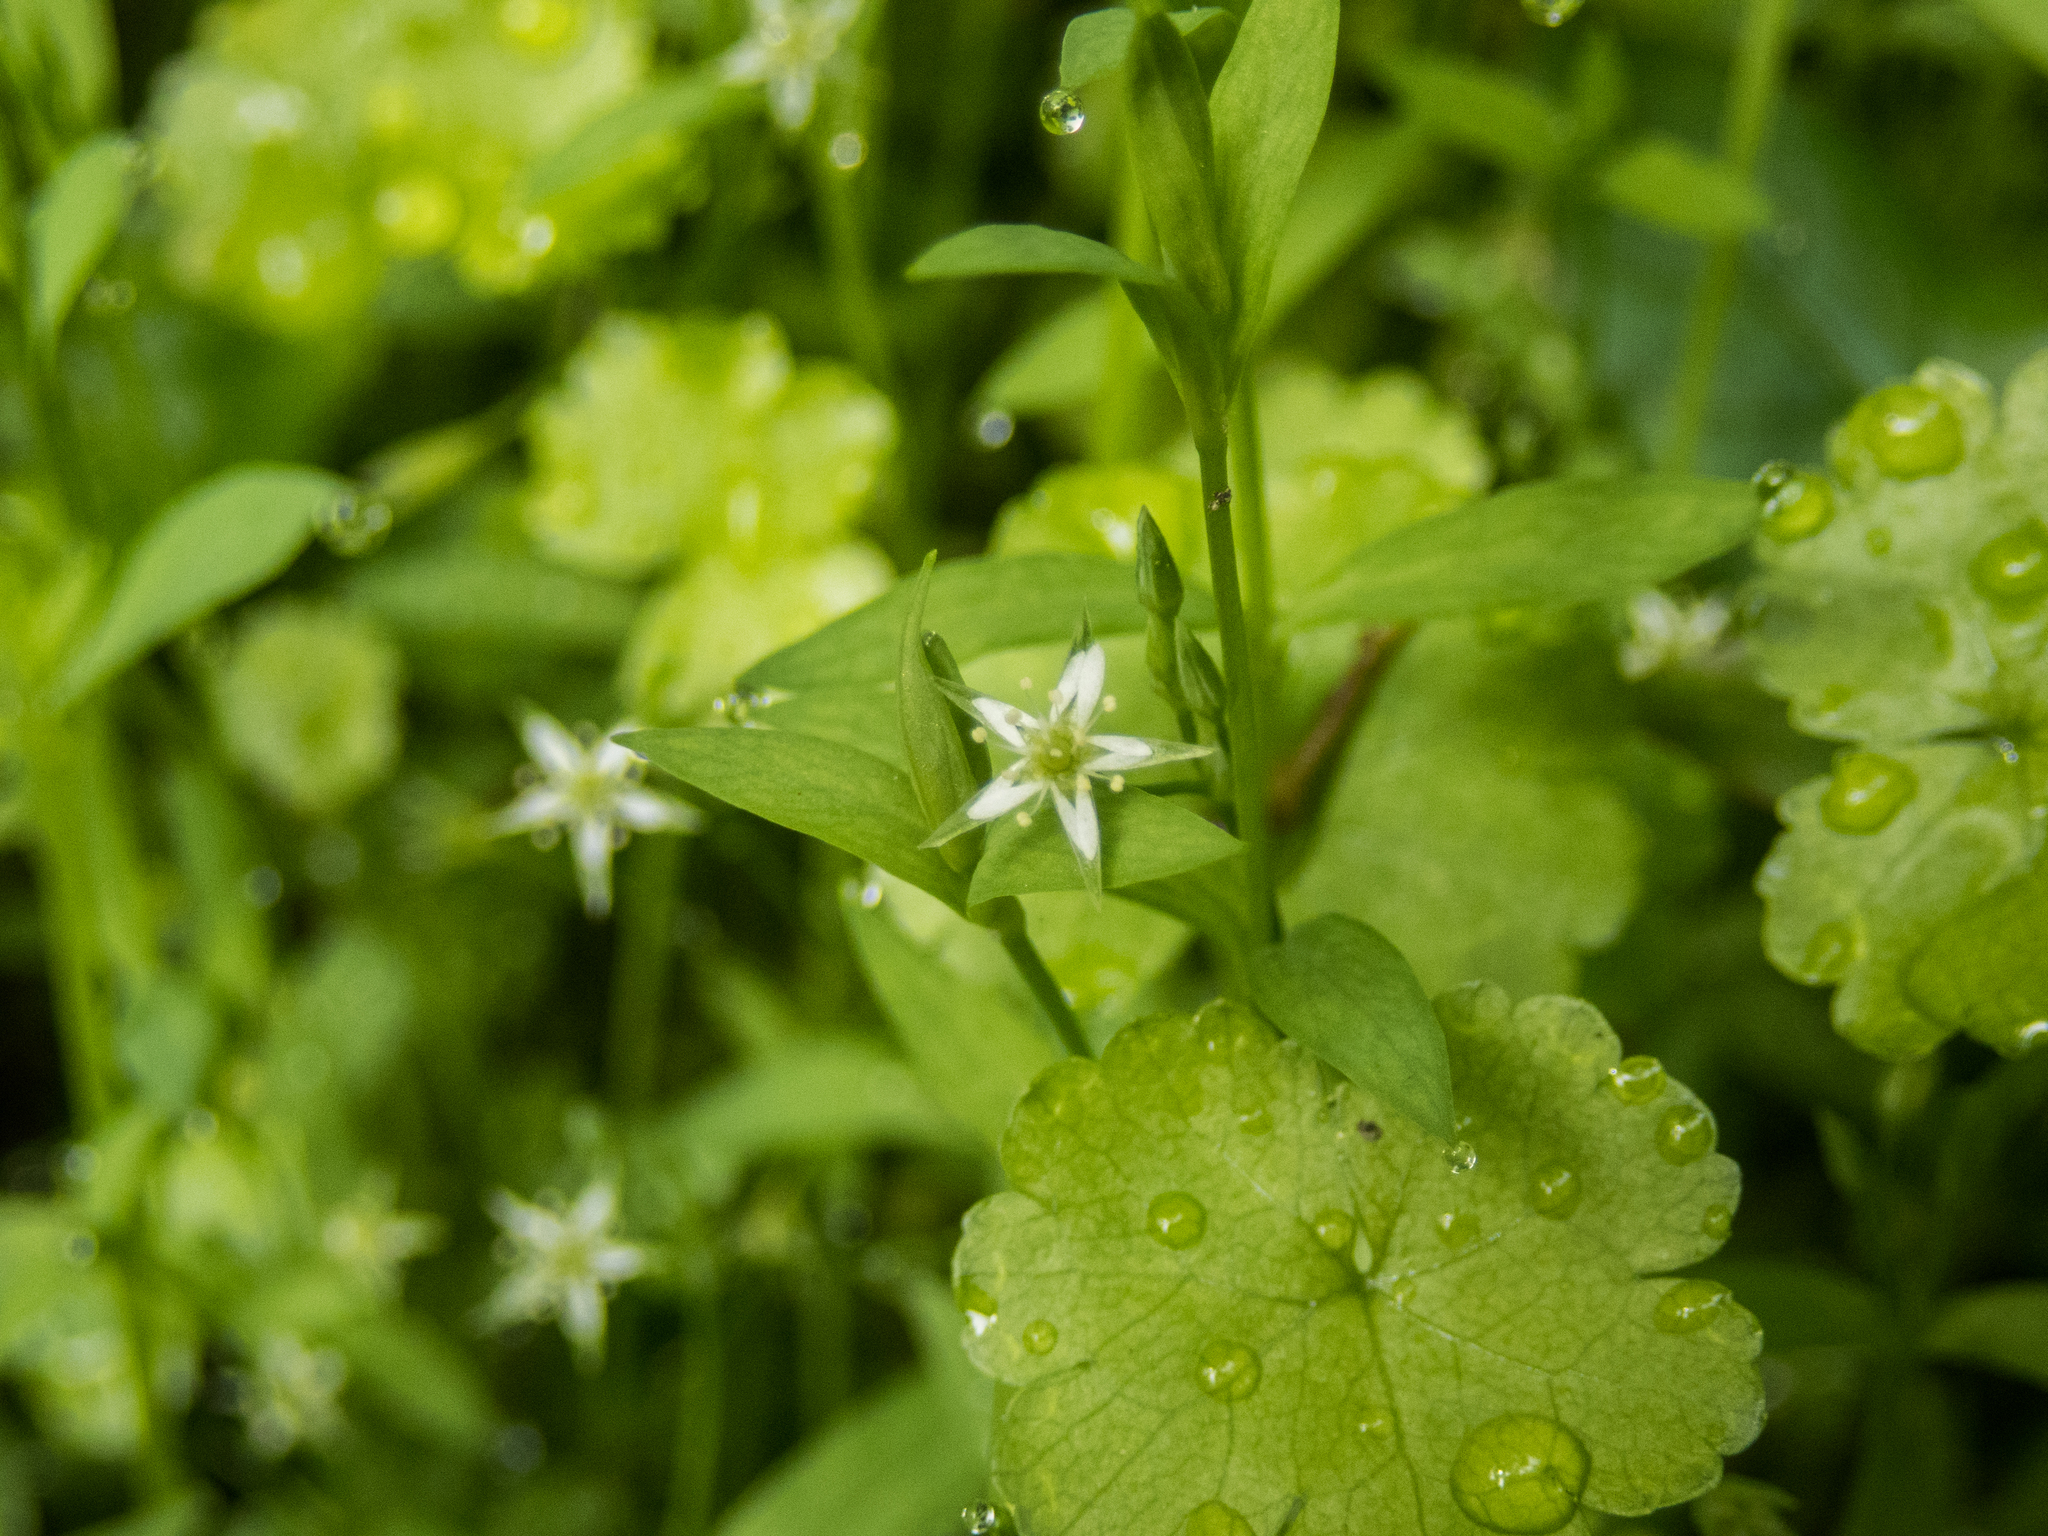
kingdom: Plantae
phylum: Tracheophyta
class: Magnoliopsida
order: Caryophyllales
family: Caryophyllaceae
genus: Stellaria
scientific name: Stellaria alsine
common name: Bog stitchwort
